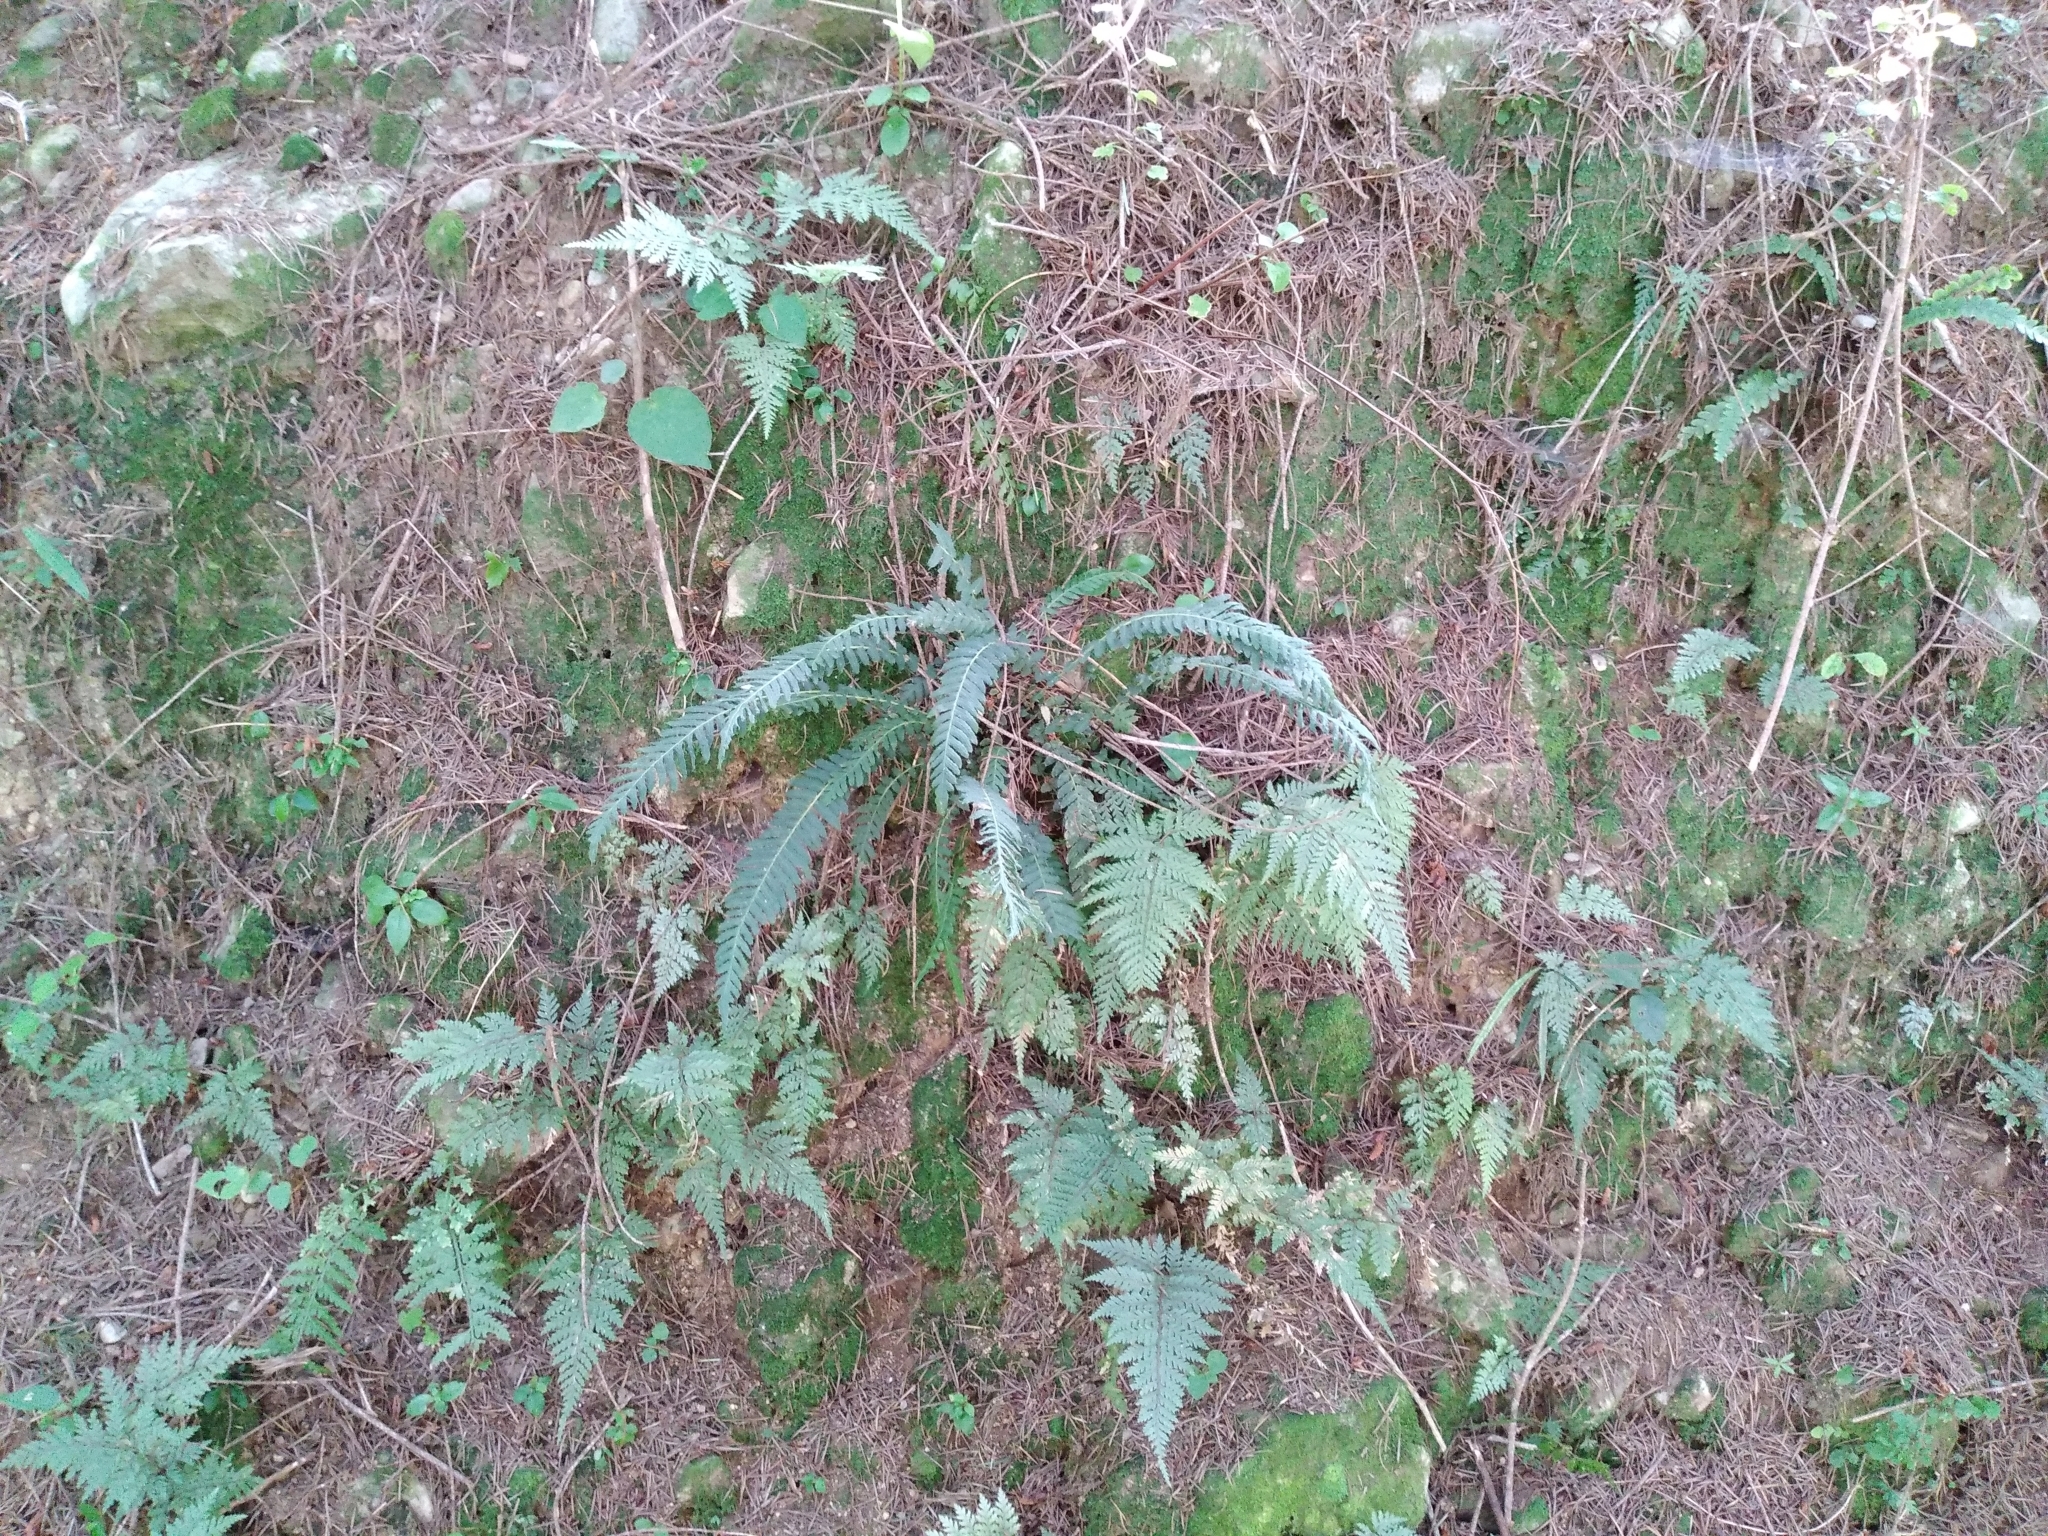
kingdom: Plantae
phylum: Tracheophyta
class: Polypodiopsida
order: Polypodiales
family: Blechnaceae
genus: Doodia
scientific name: Doodia australis
